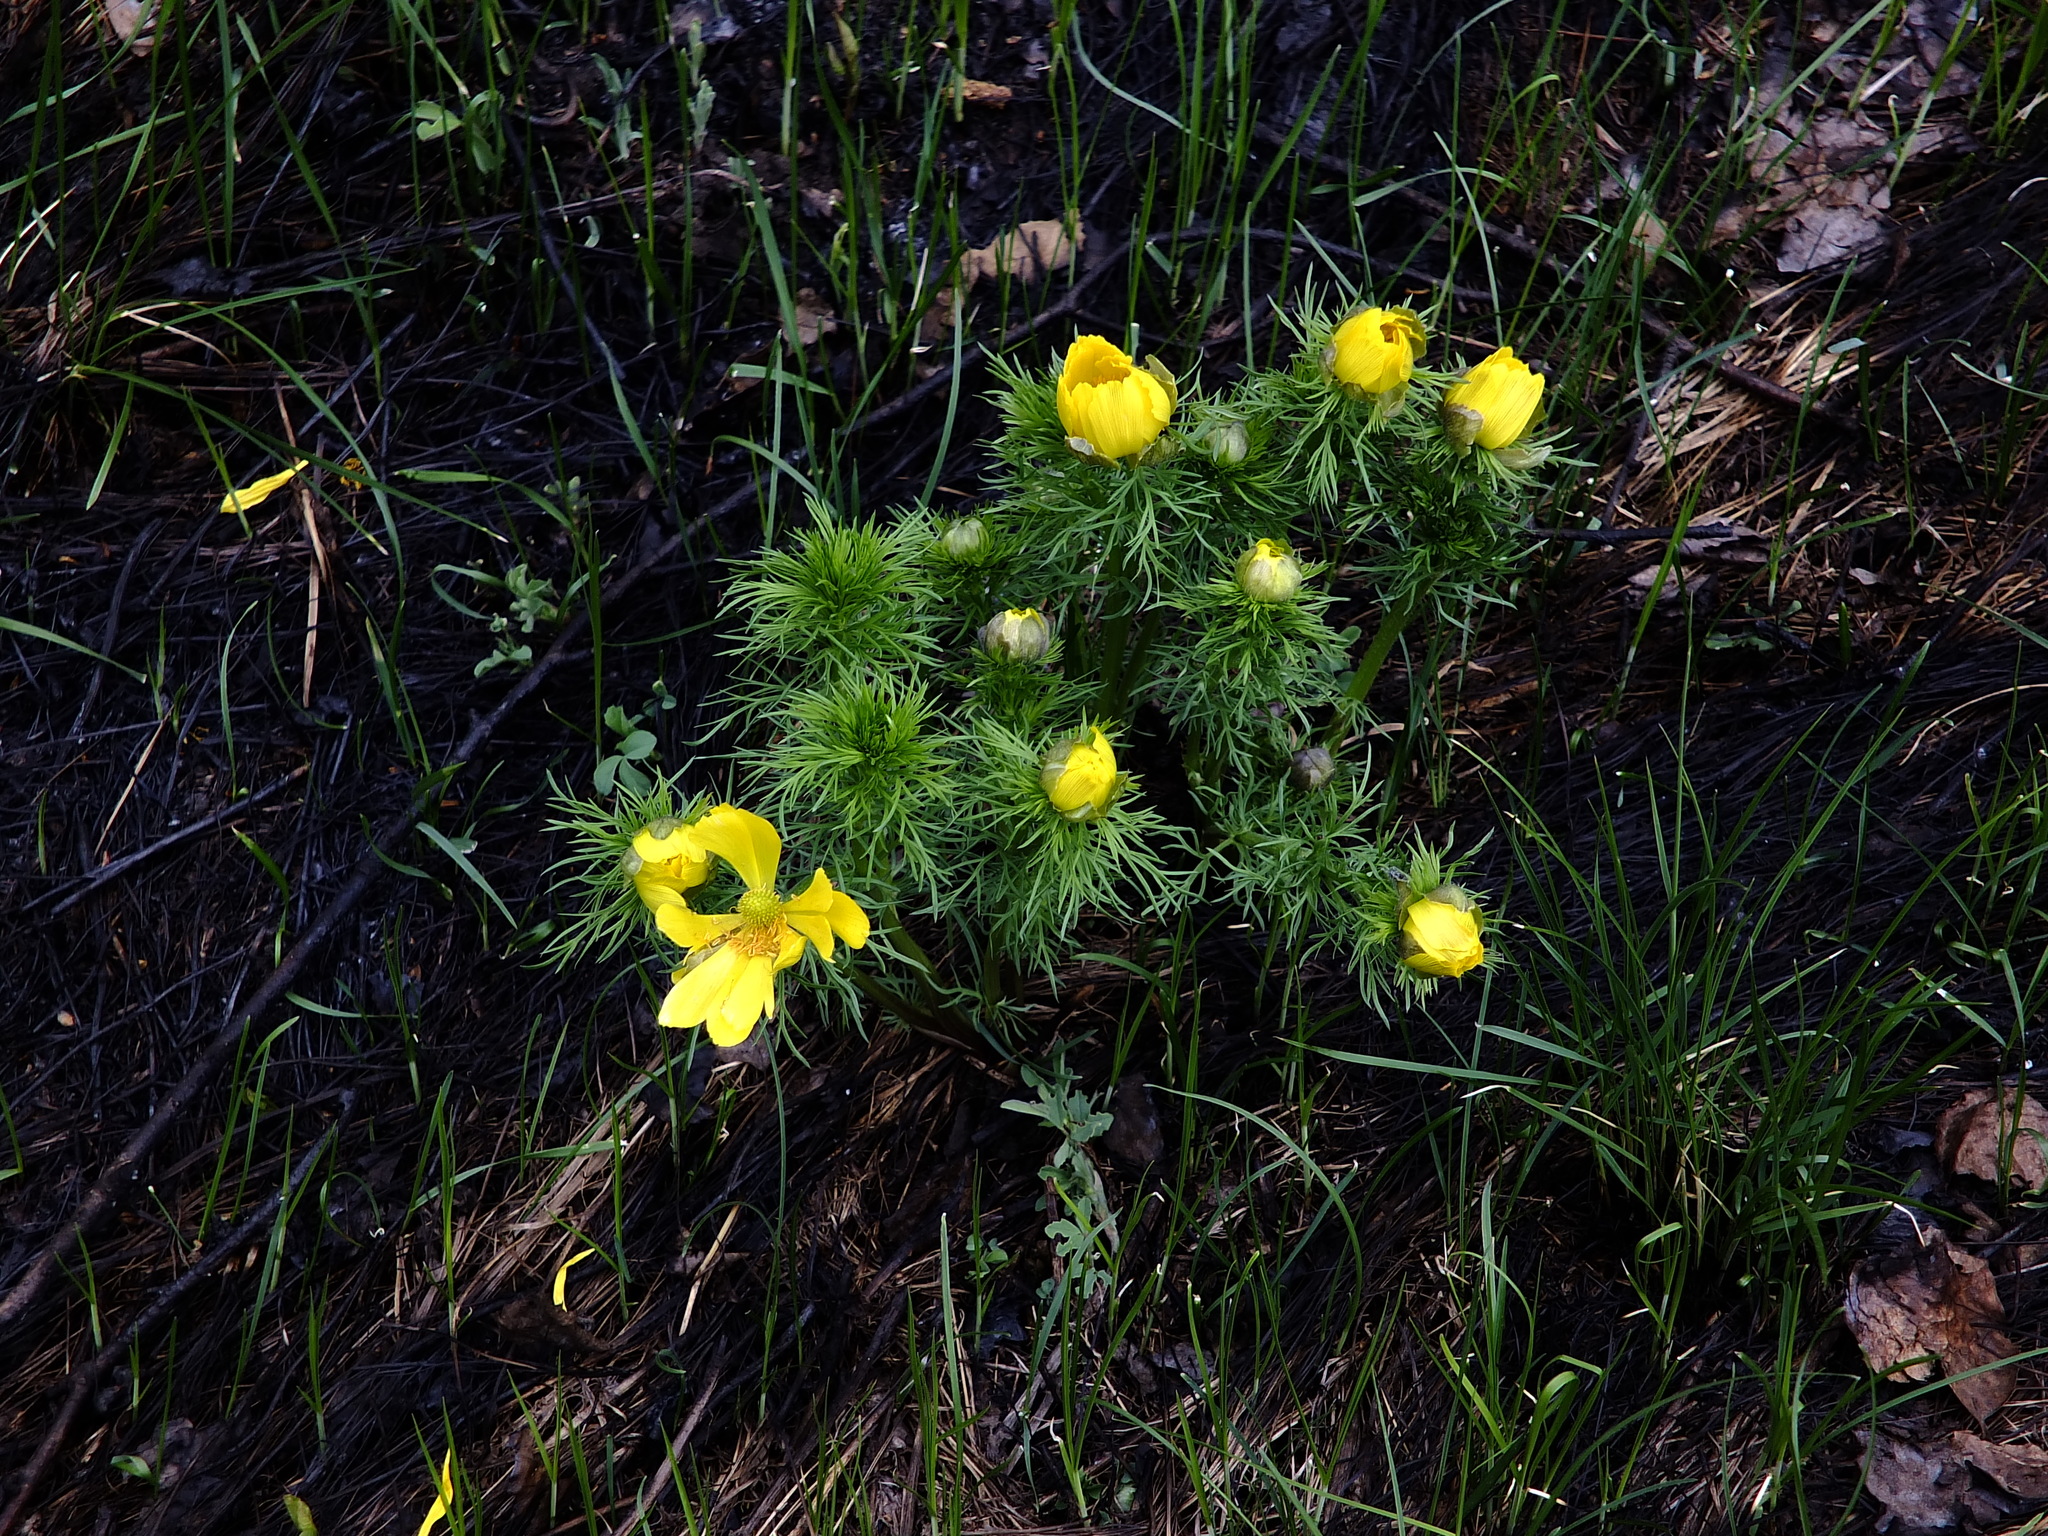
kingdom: Plantae
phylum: Tracheophyta
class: Magnoliopsida
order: Ranunculales
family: Ranunculaceae
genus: Adonis
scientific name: Adonis vernalis
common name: Yellow pheasants-eye
